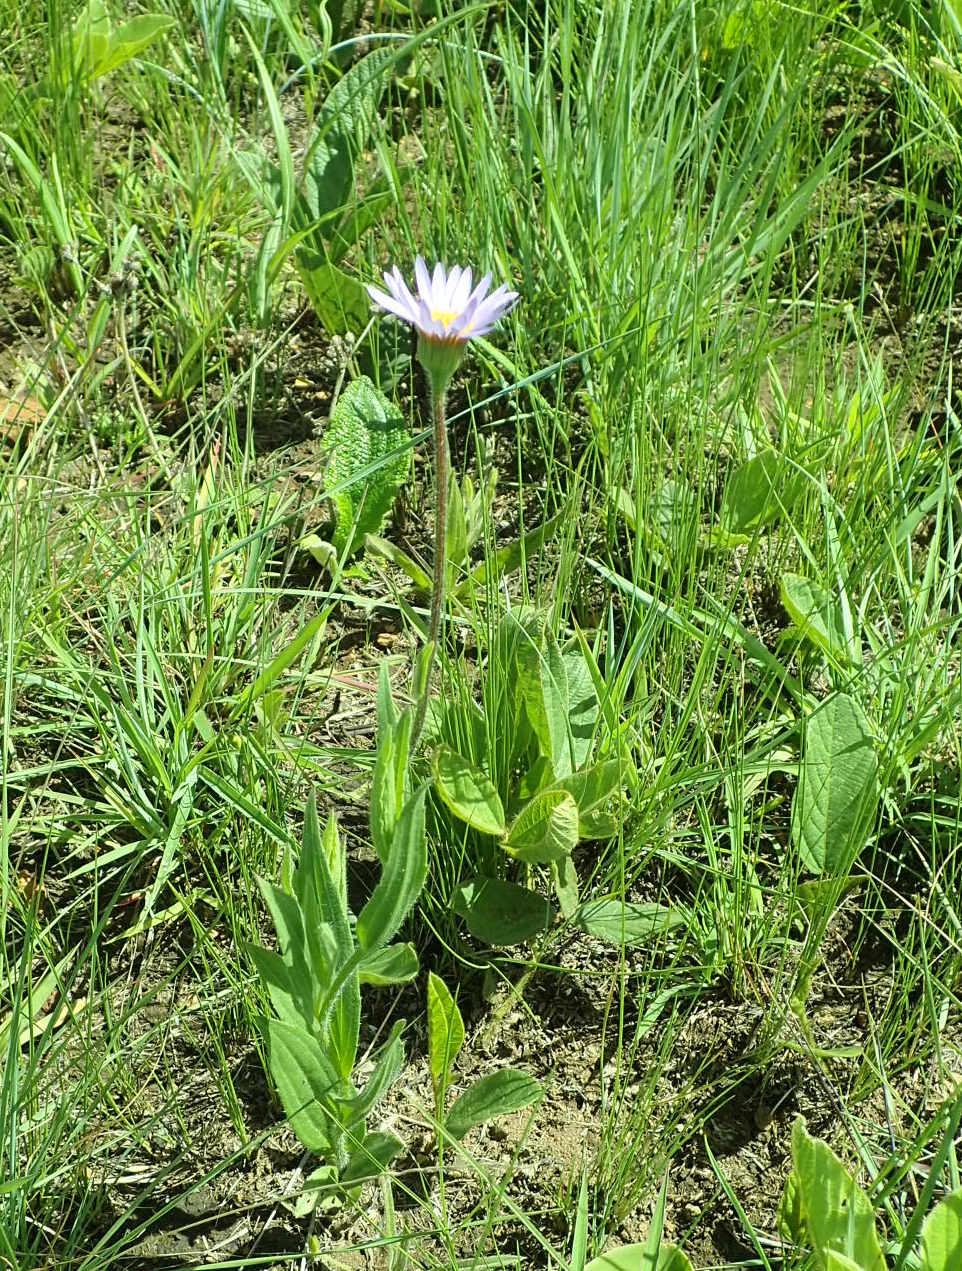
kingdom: Plantae
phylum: Tracheophyta
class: Magnoliopsida
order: Asterales
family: Asteraceae
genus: Afroaster
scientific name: Afroaster hispidus
